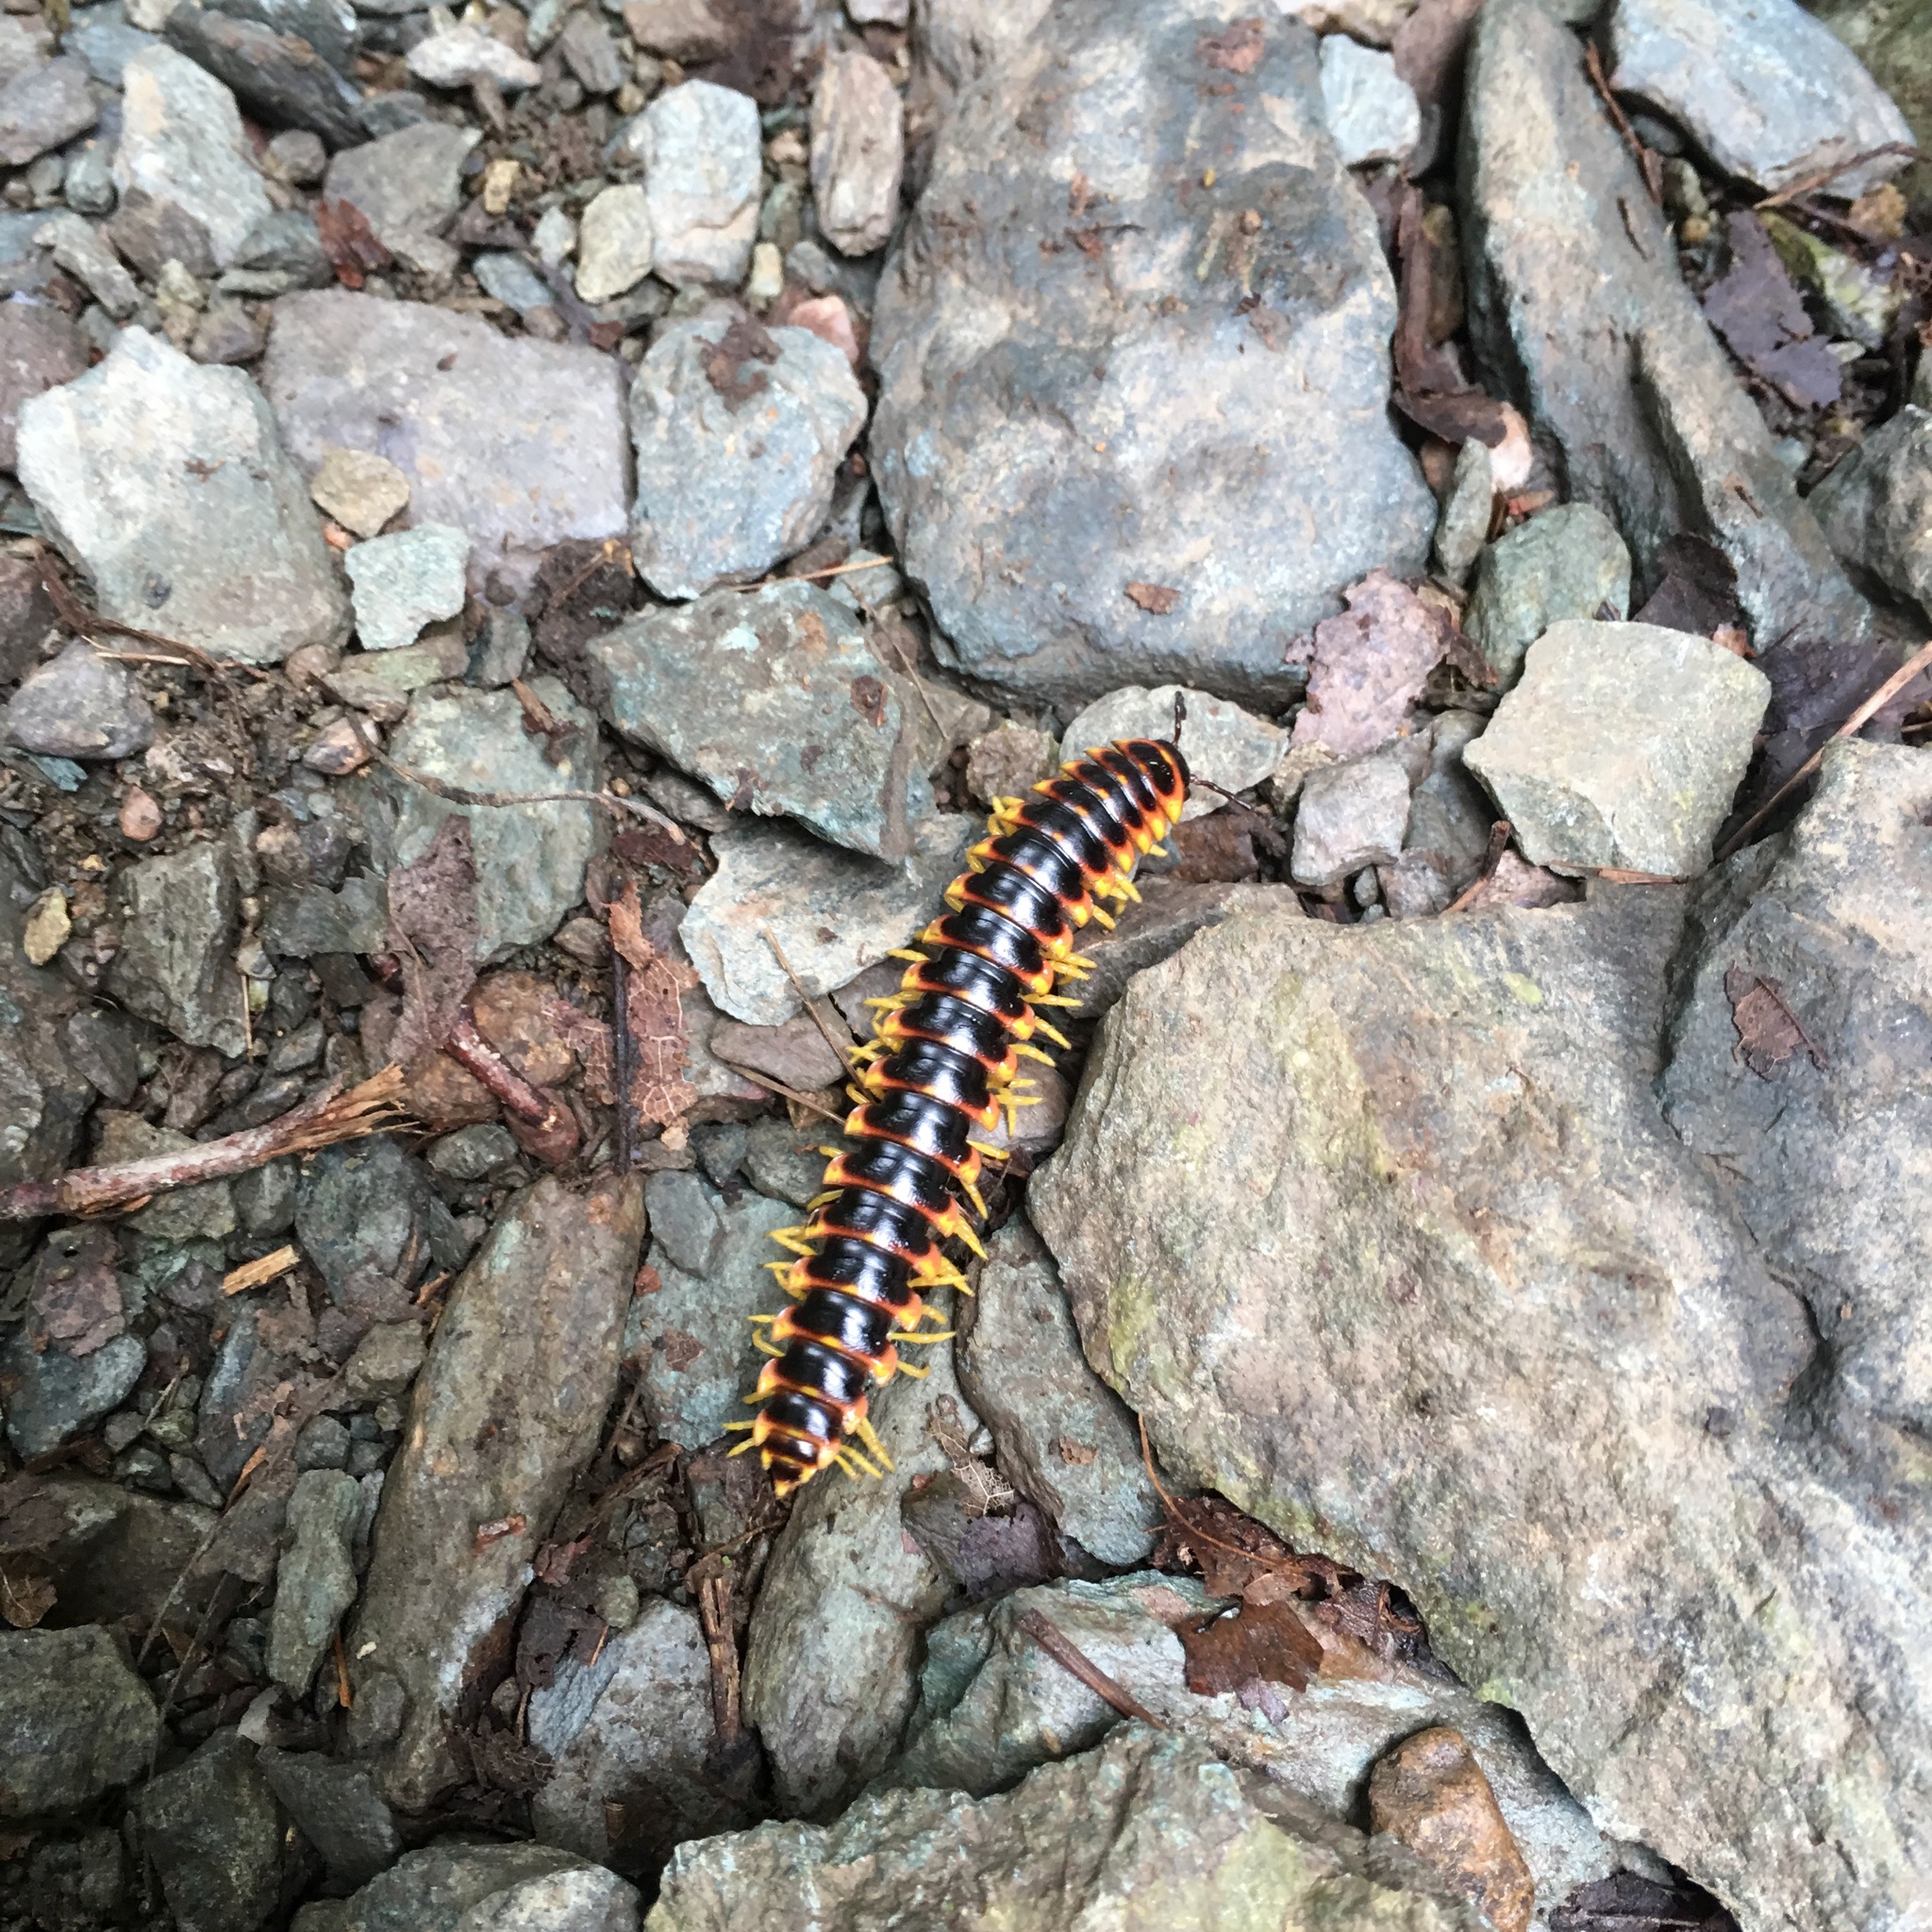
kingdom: Animalia
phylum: Arthropoda
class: Diplopoda
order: Polydesmida
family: Xystodesmidae
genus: Apheloria
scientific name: Apheloria virginiensis
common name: Black-and-gold flat millipede
